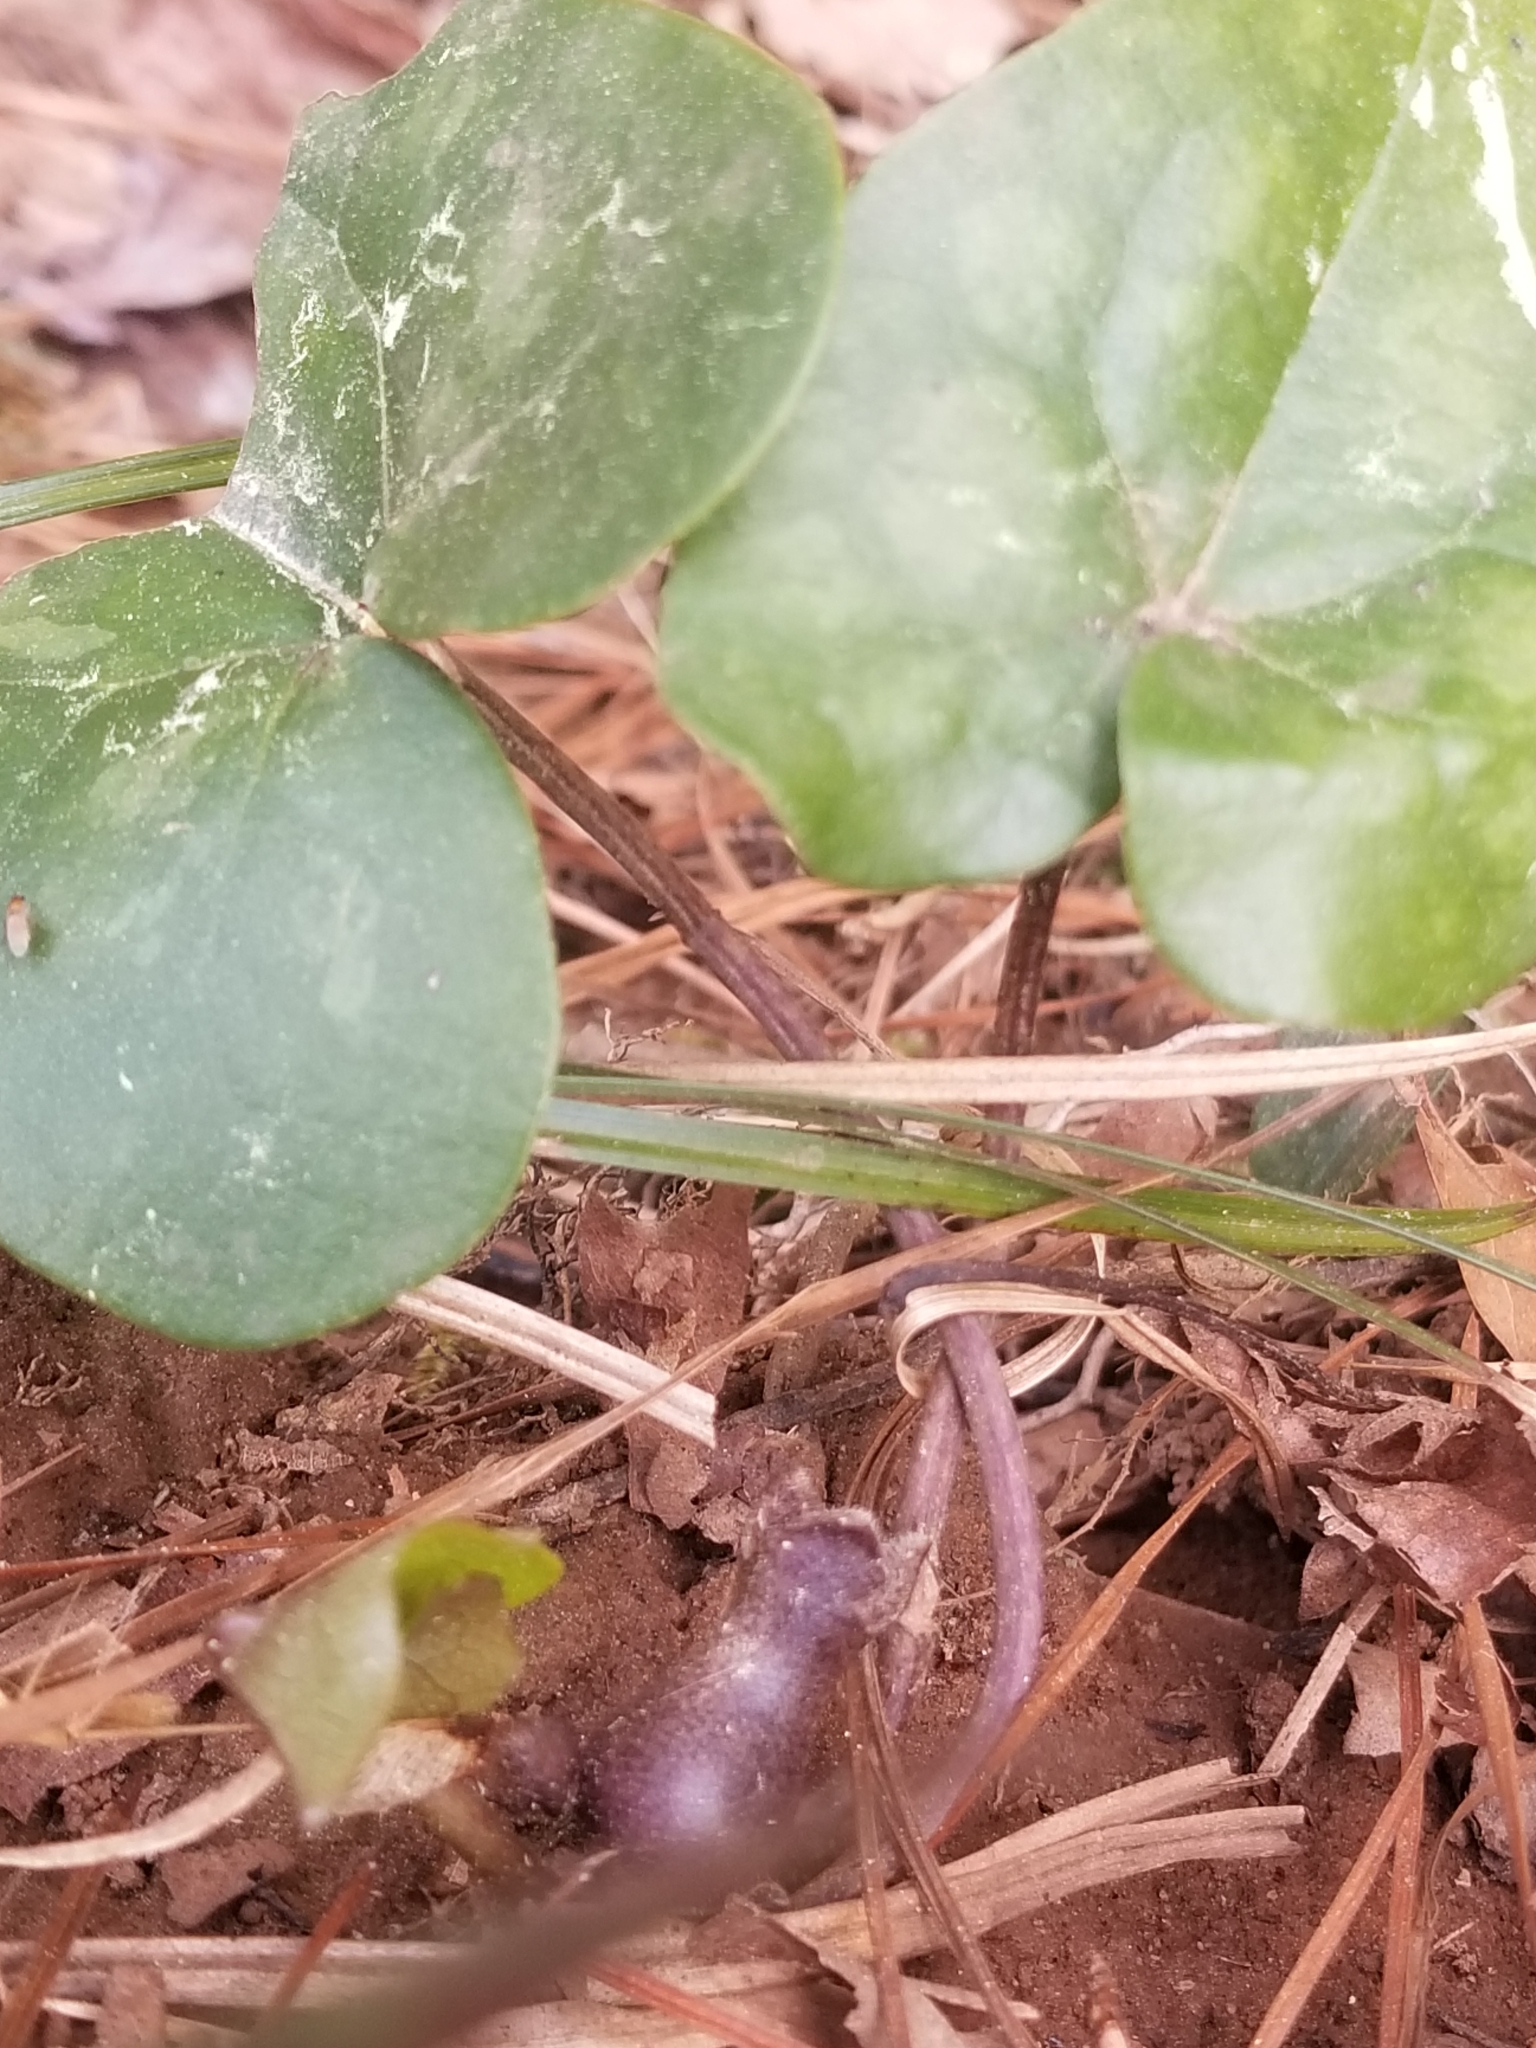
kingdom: Plantae
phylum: Tracheophyta
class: Magnoliopsida
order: Piperales
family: Aristolochiaceae
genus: Hexastylis
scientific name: Hexastylis arifolia
